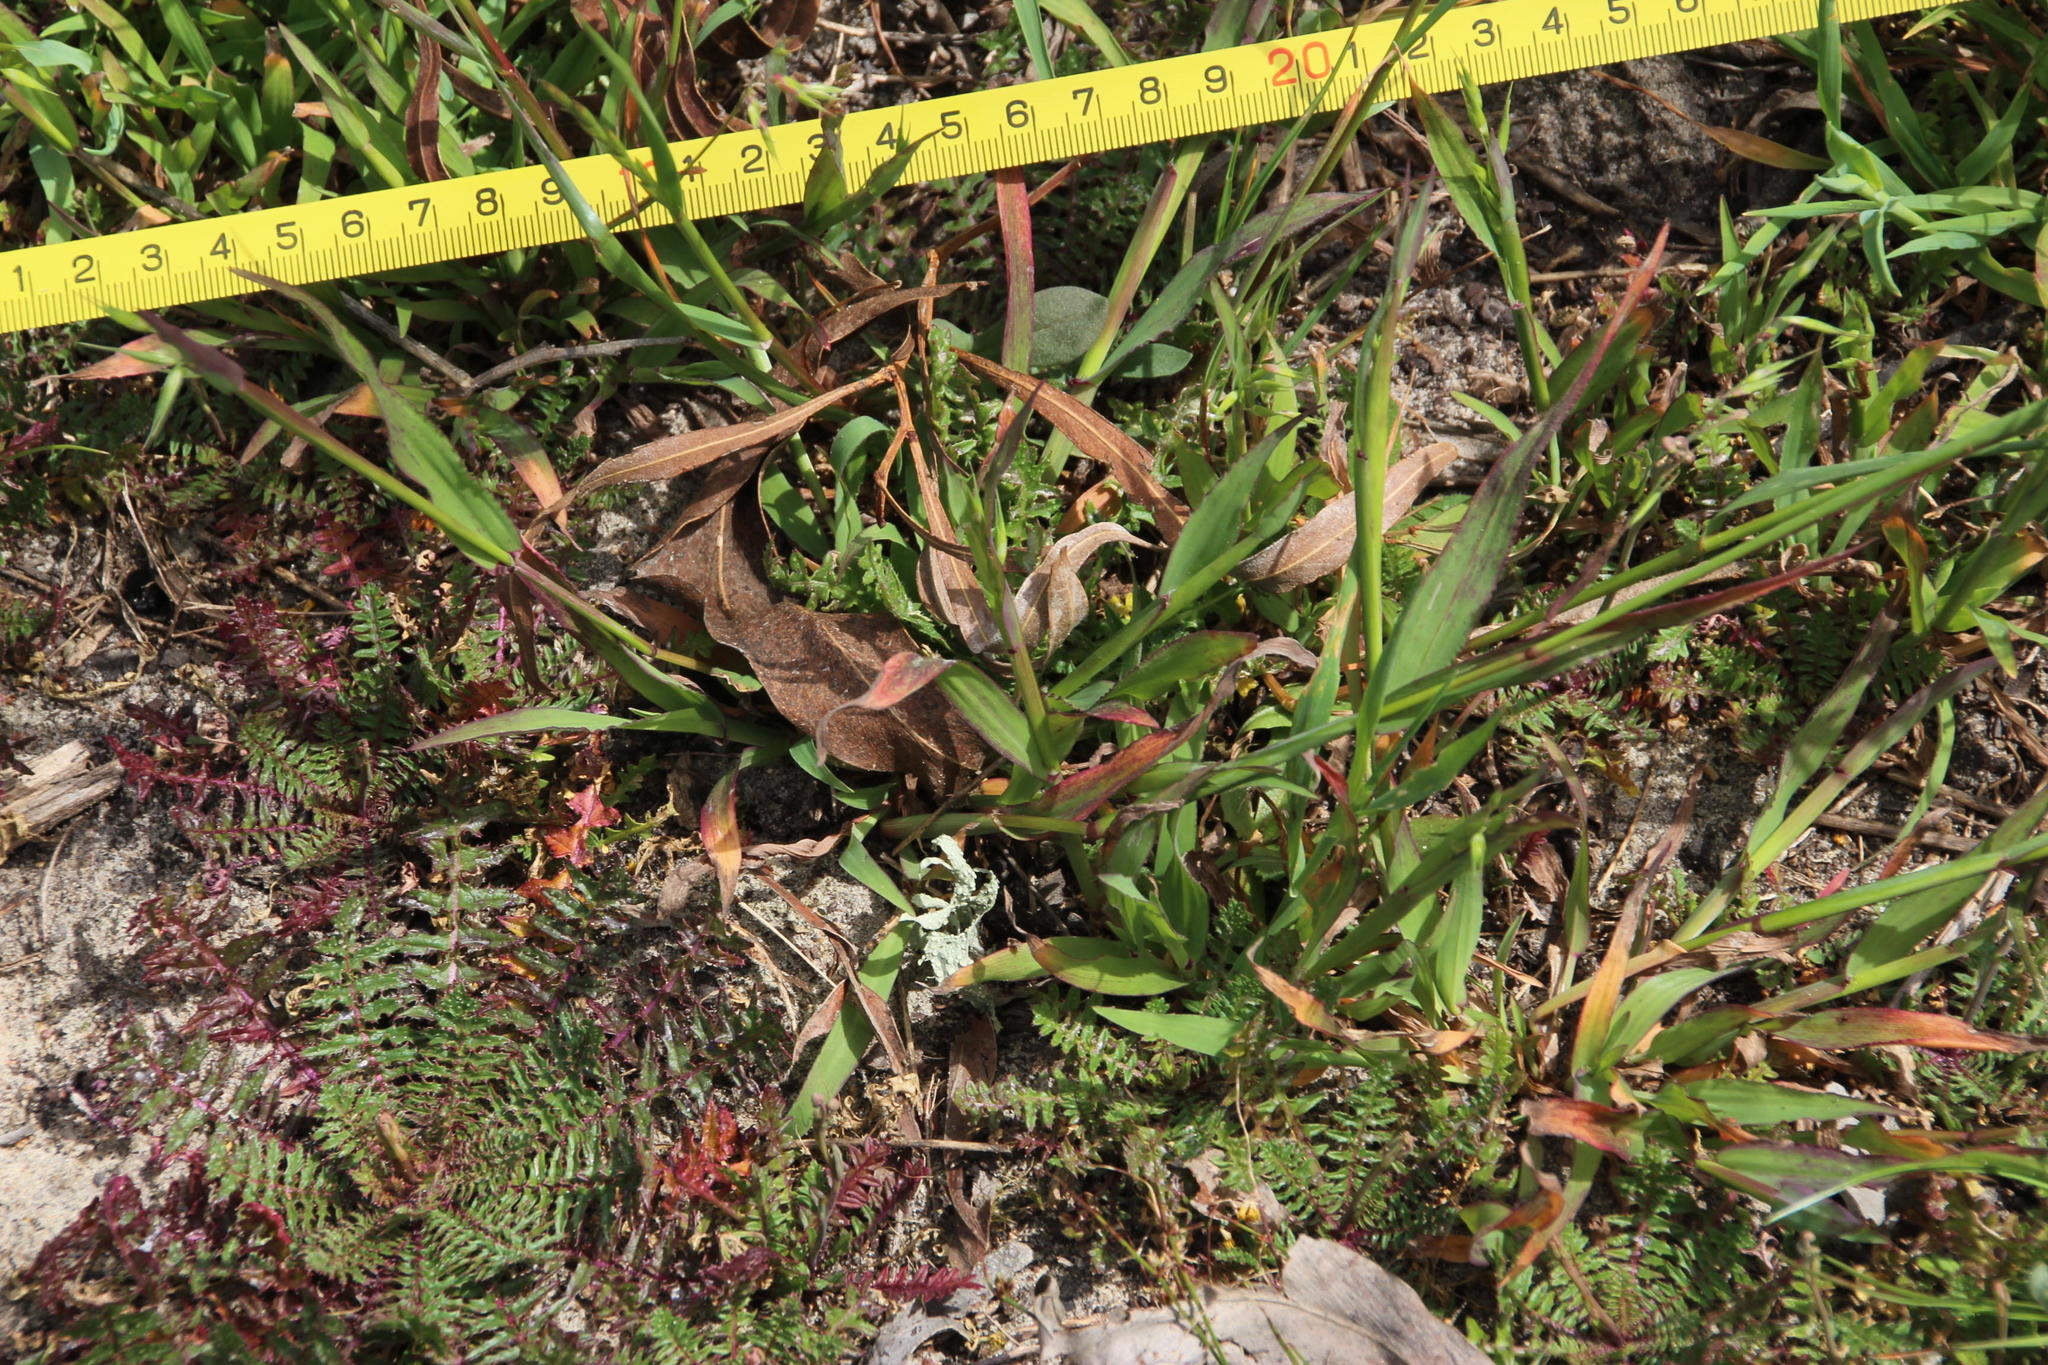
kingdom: Plantae
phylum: Tracheophyta
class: Liliopsida
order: Poales
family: Poaceae
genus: Ehrharta
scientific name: Ehrharta longiflora
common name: Longflowered veldtgrass
